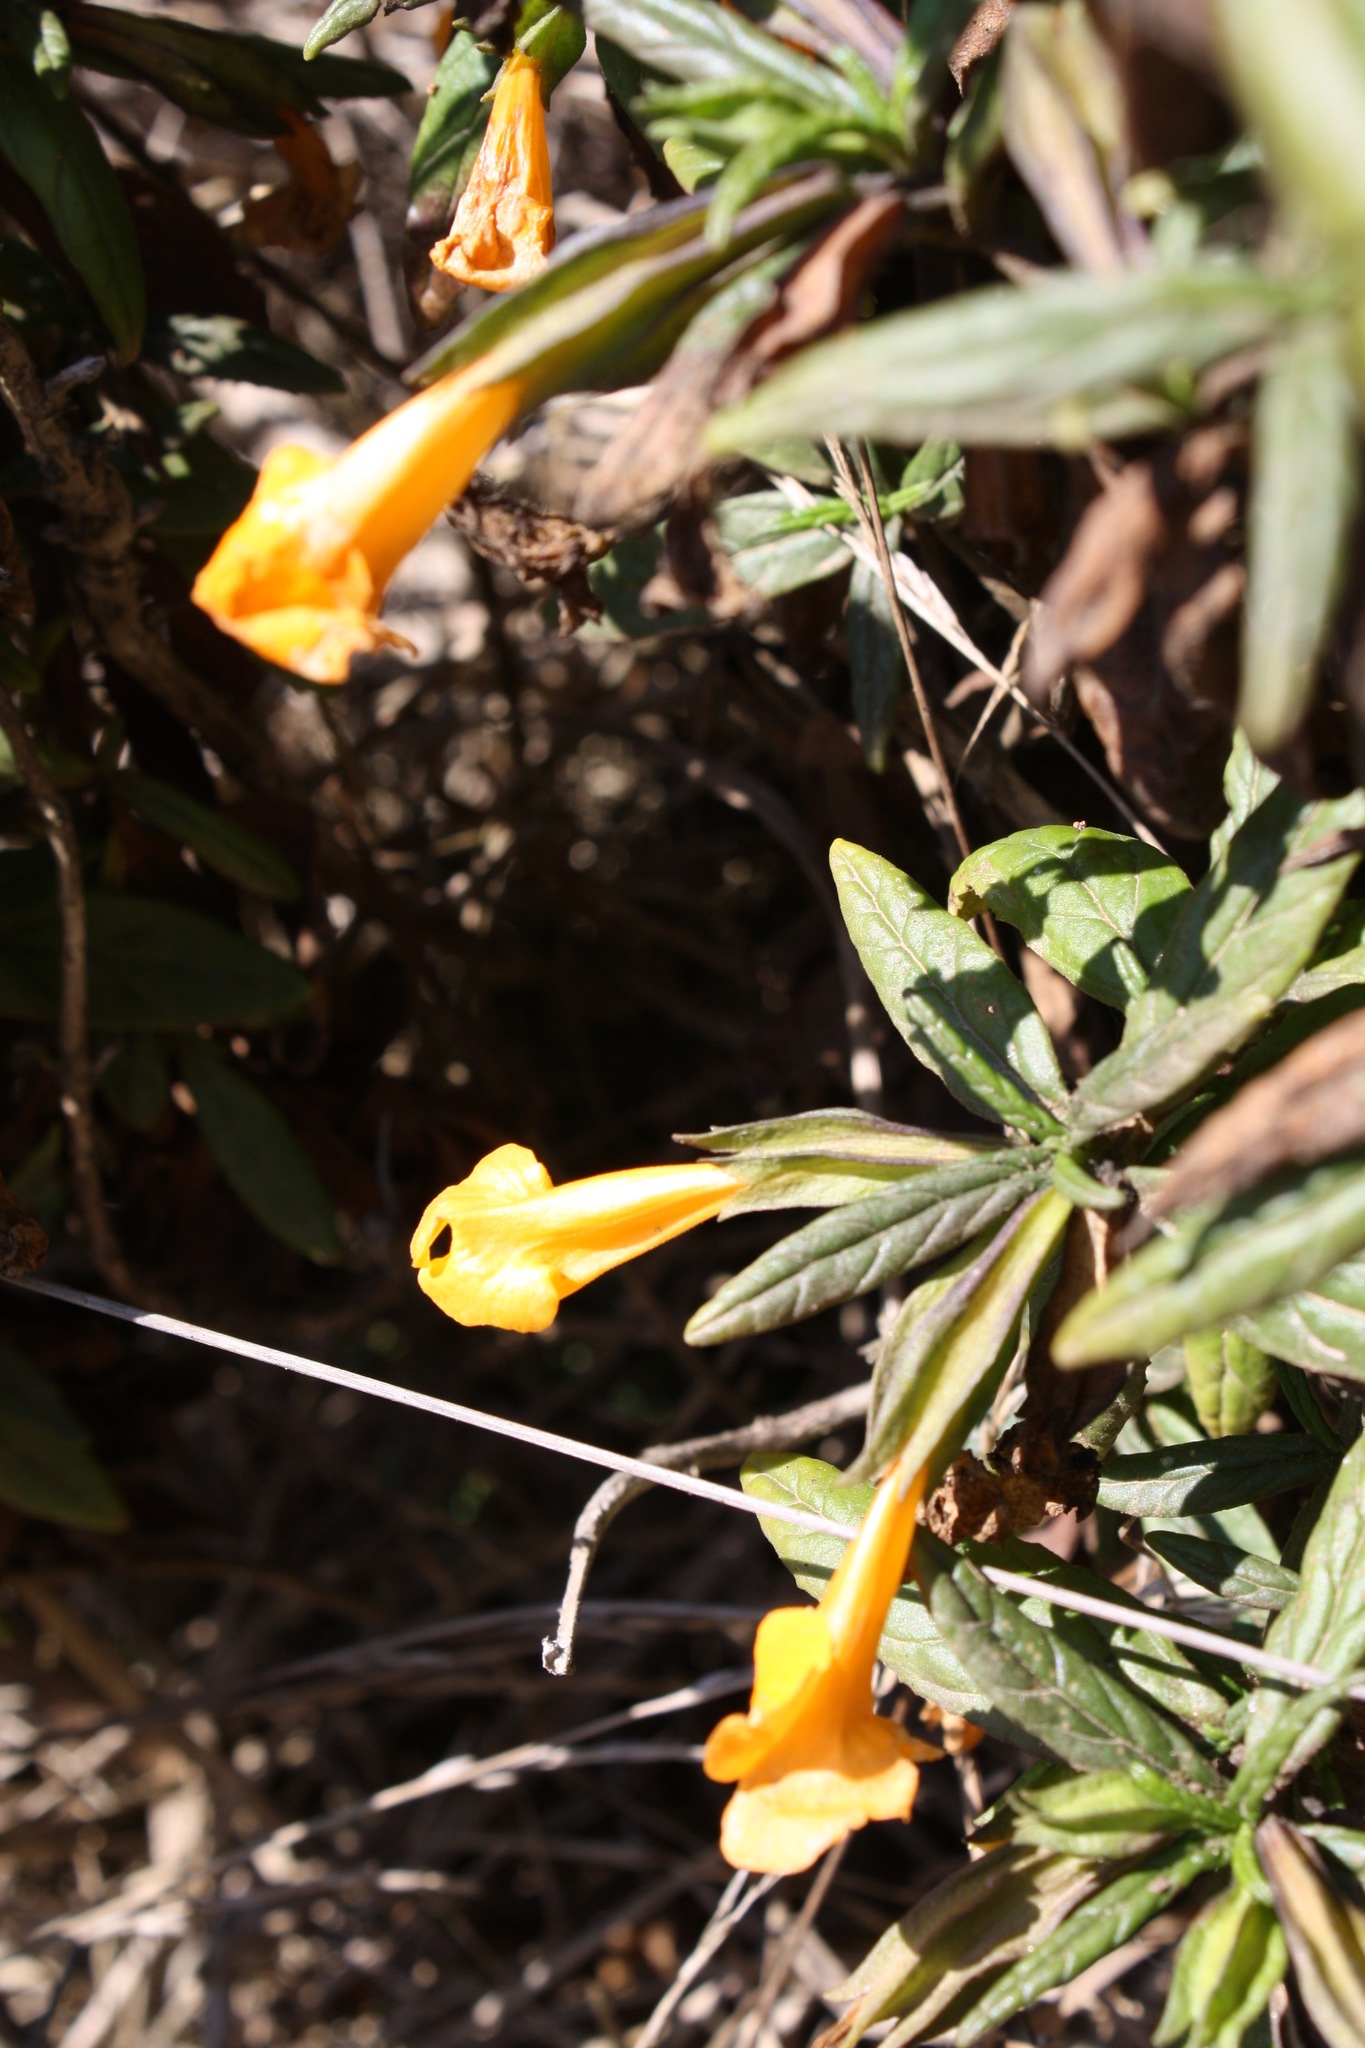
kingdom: Plantae
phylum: Tracheophyta
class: Magnoliopsida
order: Lamiales
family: Phrymaceae
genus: Diplacus
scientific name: Diplacus aurantiacus
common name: Bush monkey-flower
